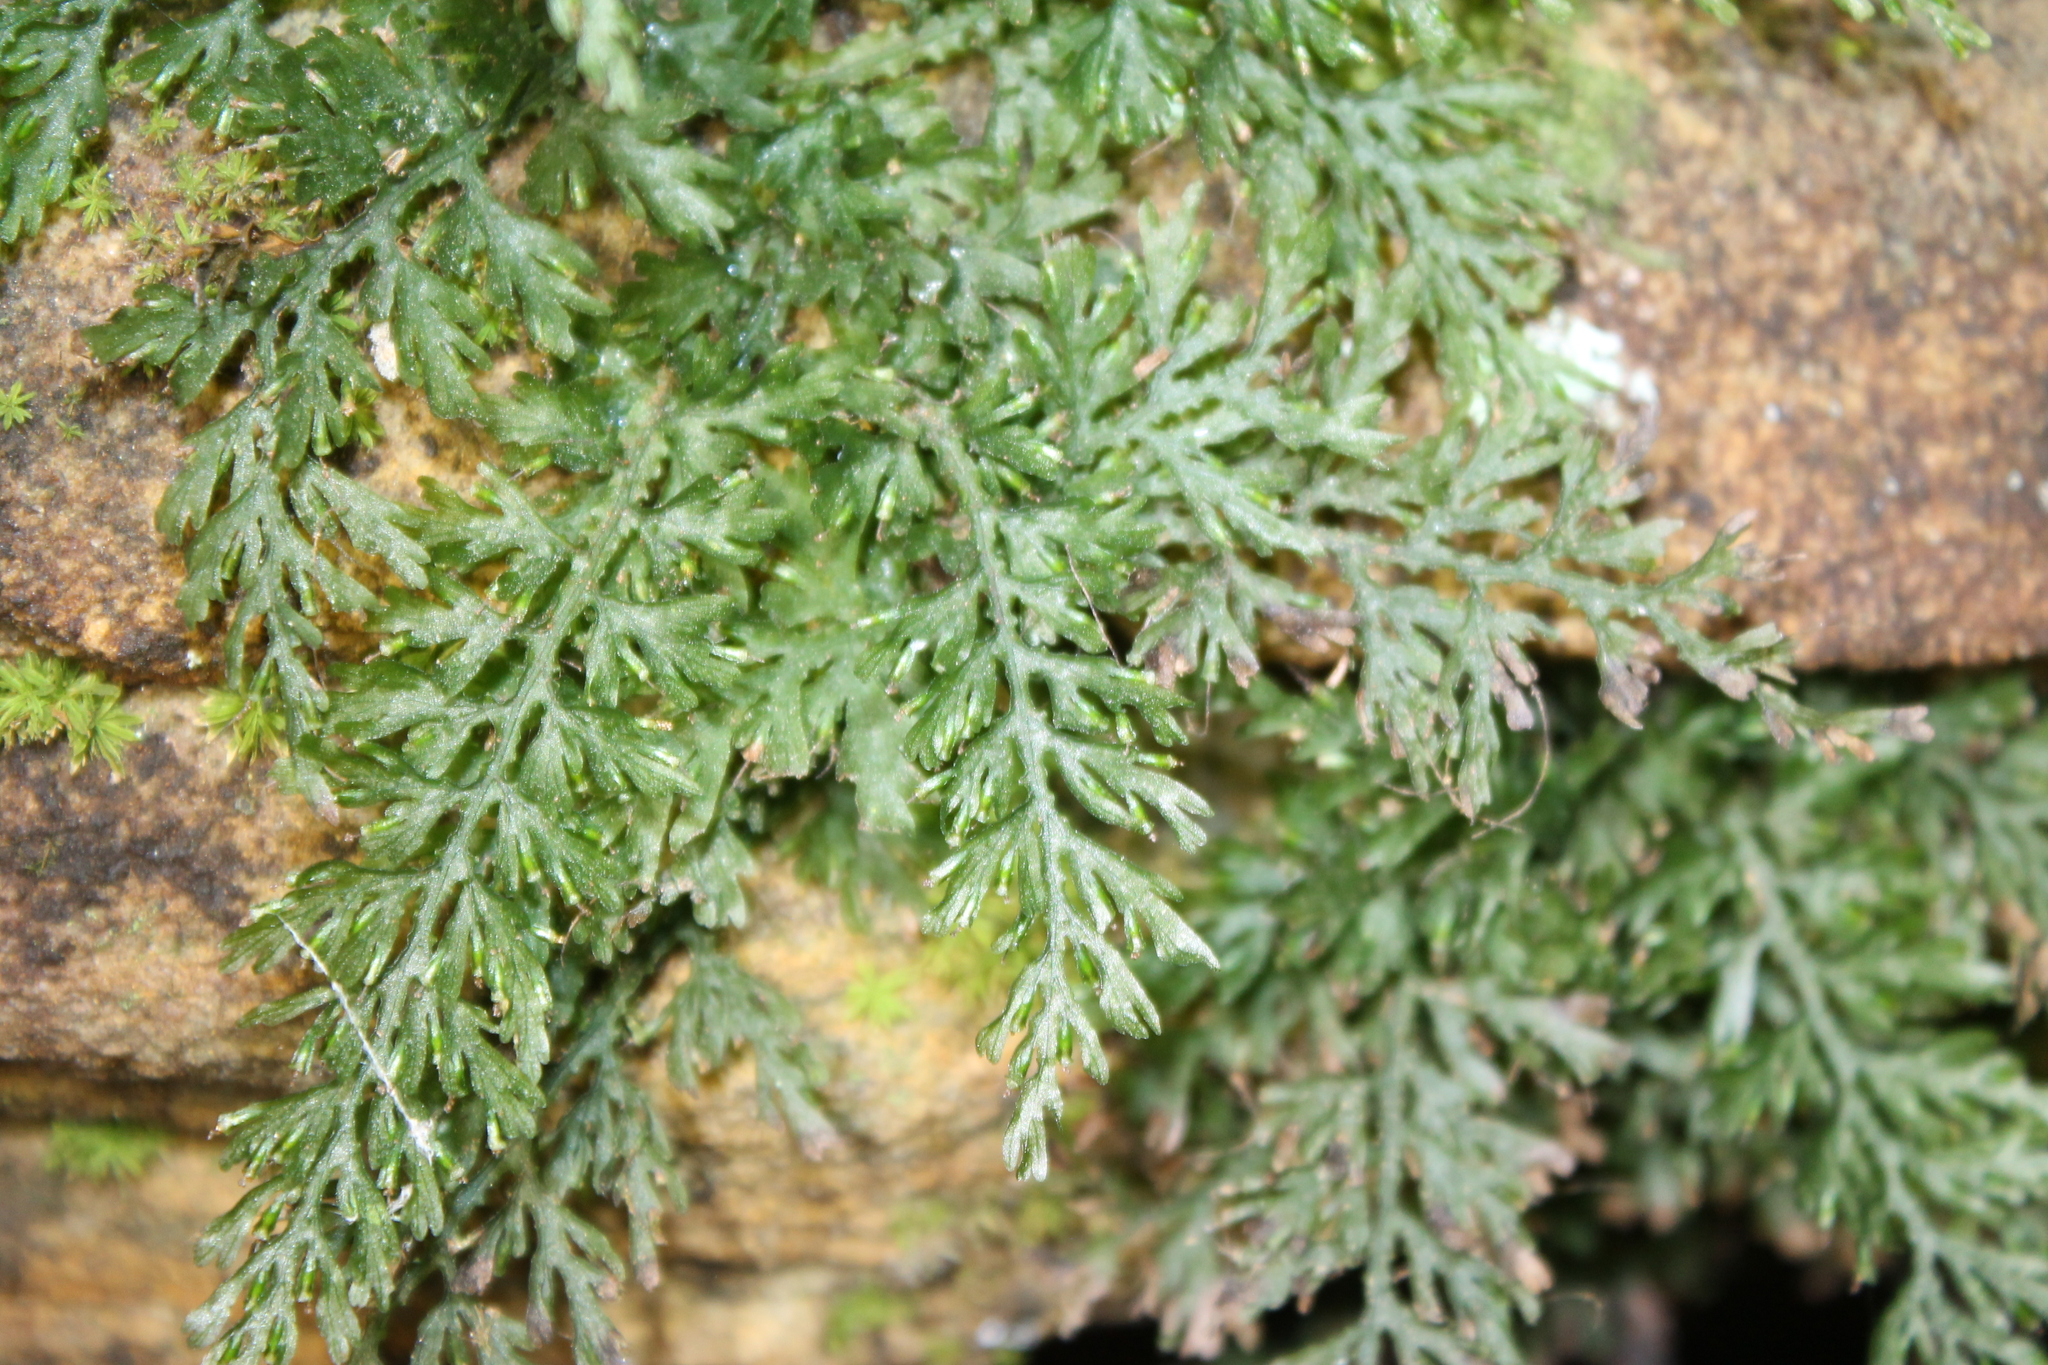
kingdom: Plantae
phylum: Tracheophyta
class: Polypodiopsida
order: Hymenophyllales
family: Hymenophyllaceae
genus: Vandenboschia
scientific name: Vandenboschia boschiana
